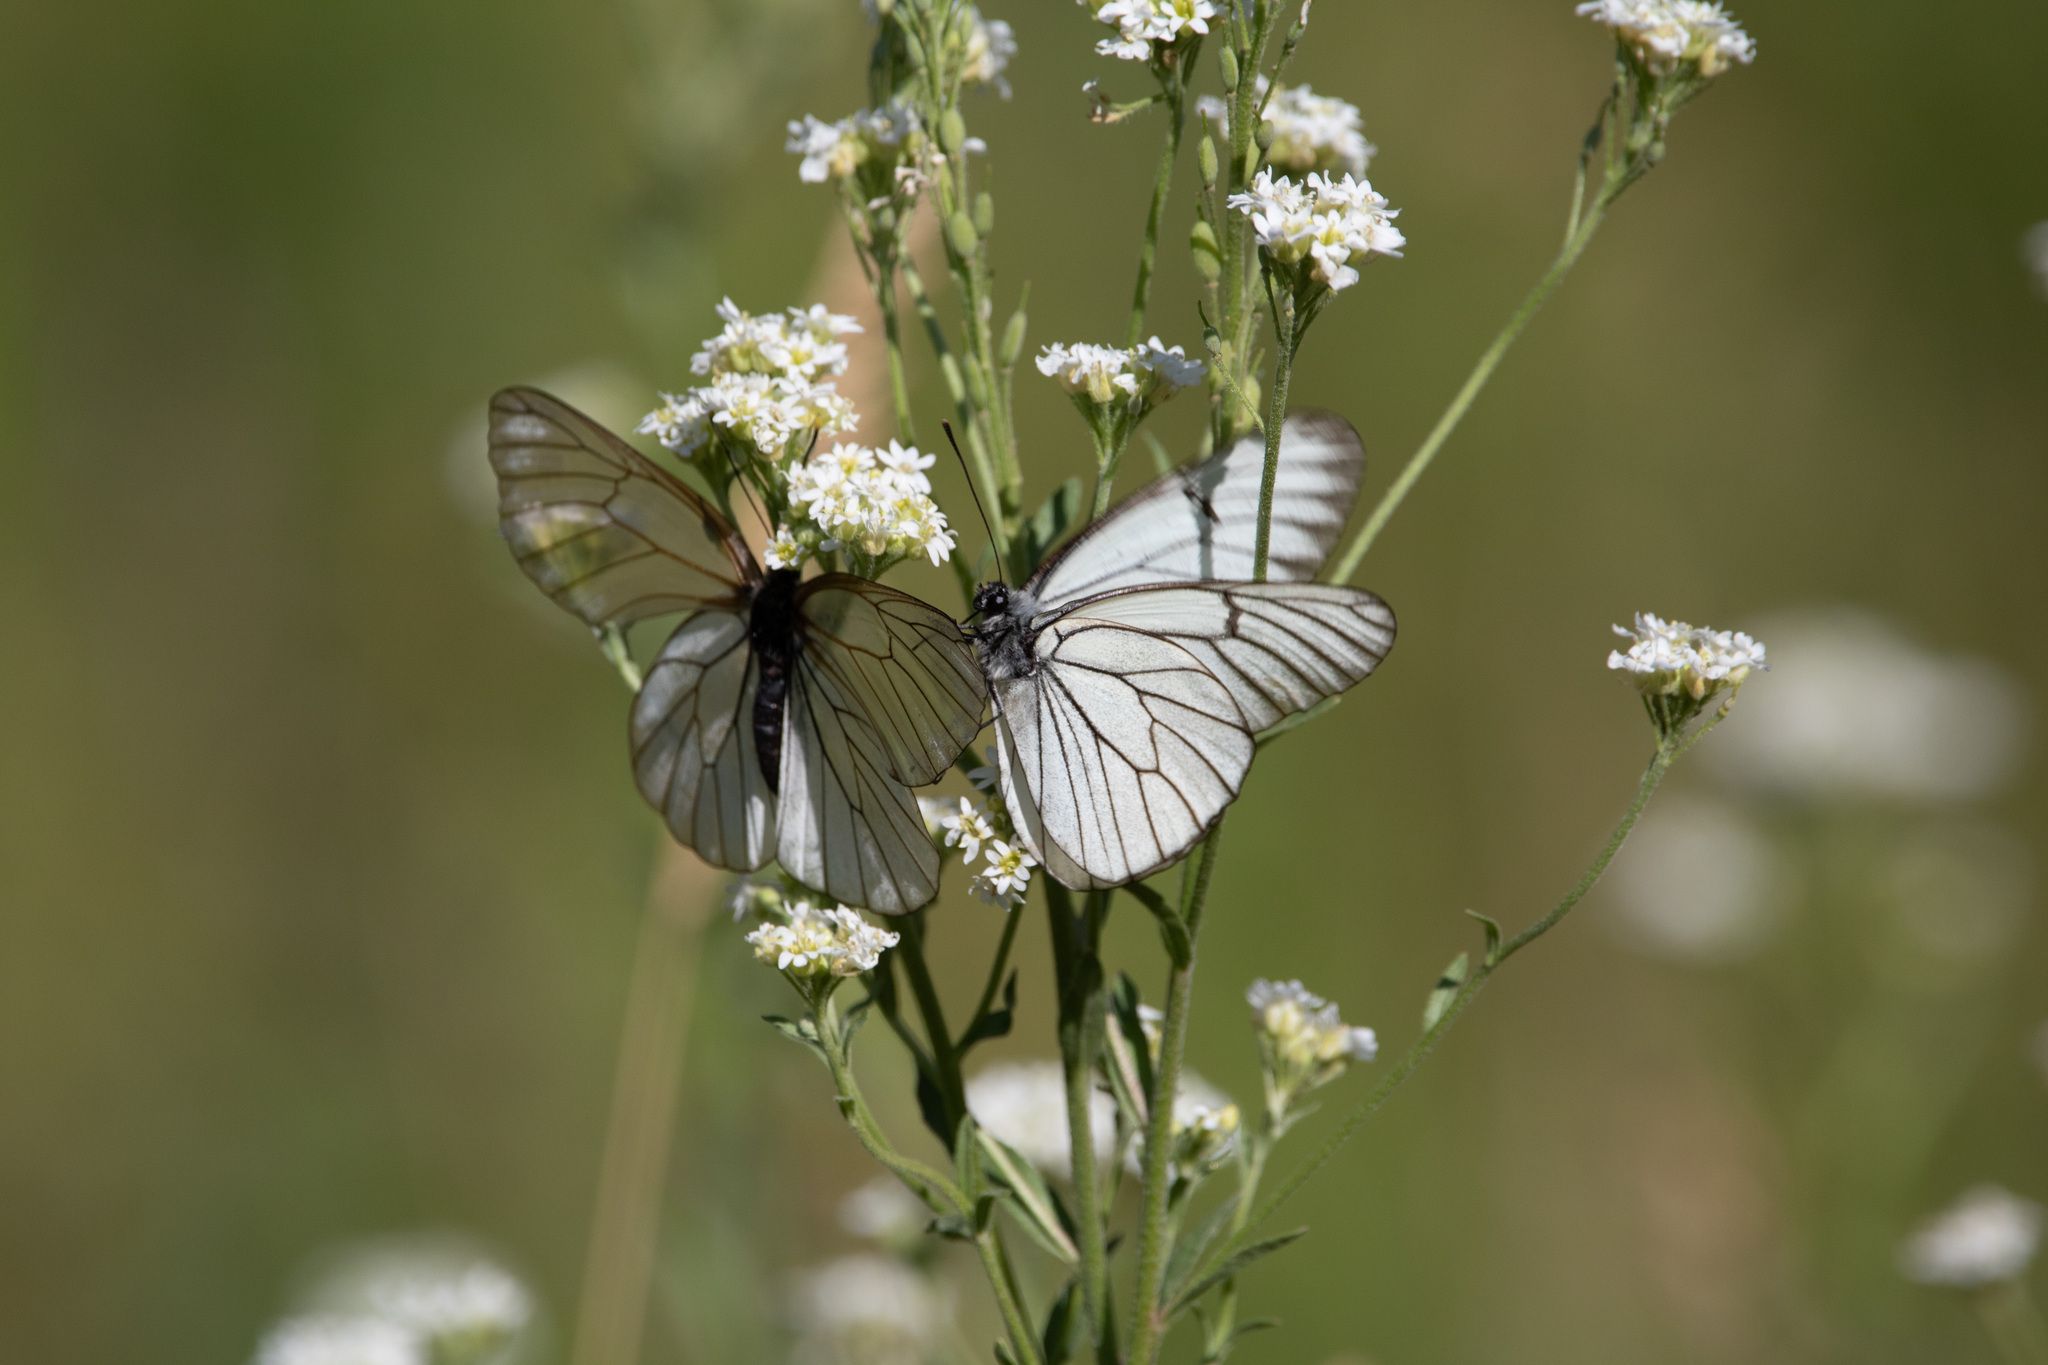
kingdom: Animalia
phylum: Arthropoda
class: Insecta
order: Lepidoptera
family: Pieridae
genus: Aporia
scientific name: Aporia crataegi
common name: Black-veined white
